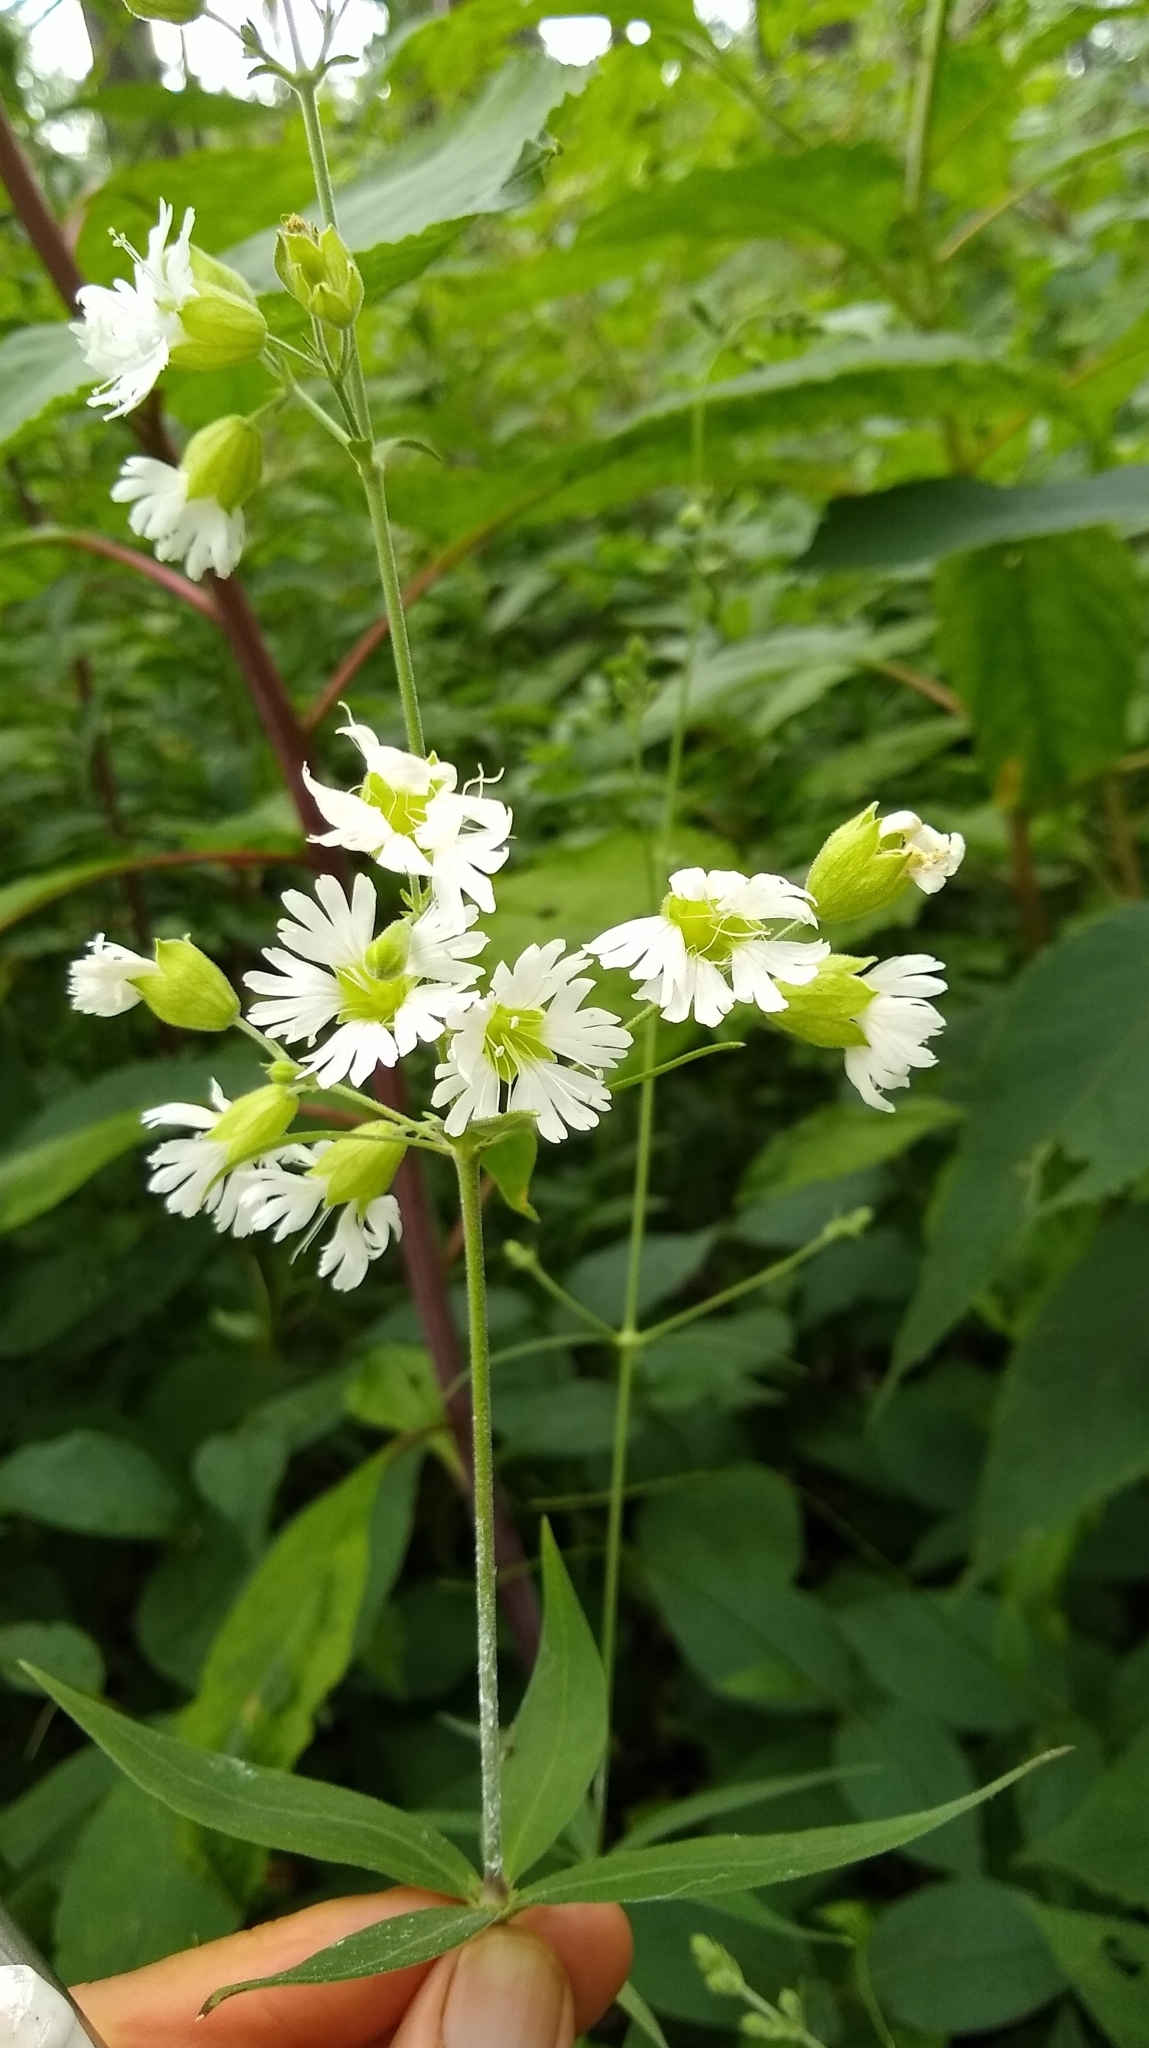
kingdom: Plantae
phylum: Tracheophyta
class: Magnoliopsida
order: Caryophyllales
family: Caryophyllaceae
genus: Silene
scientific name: Silene stellata
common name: Starry campion
